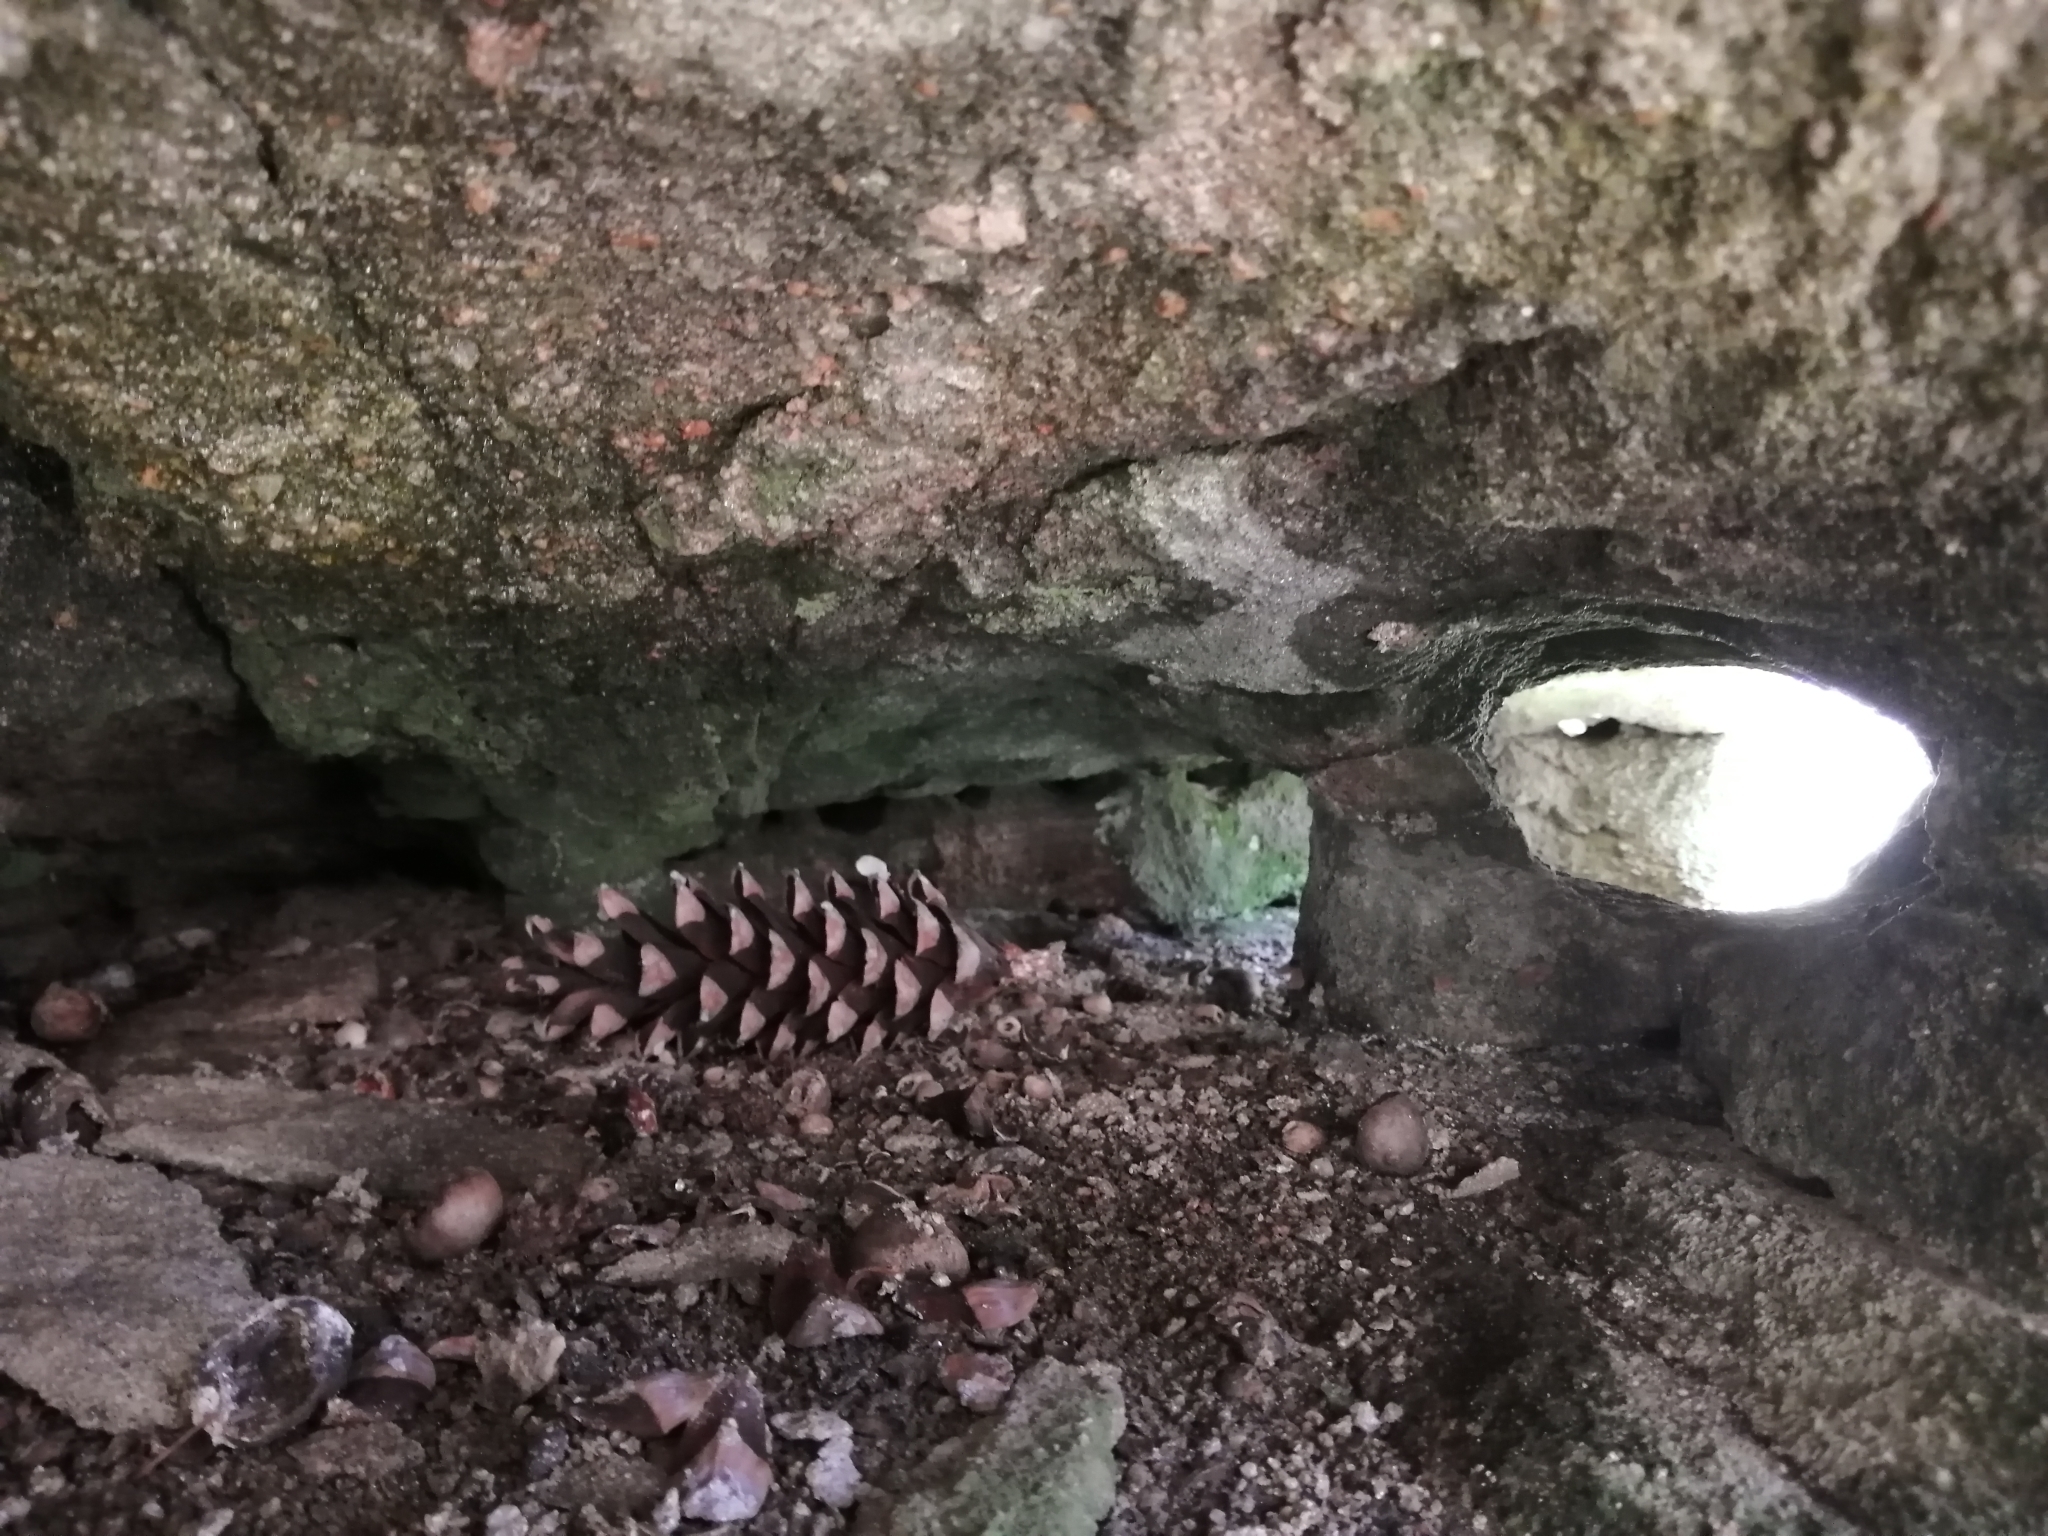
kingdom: Plantae
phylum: Tracheophyta
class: Pinopsida
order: Pinales
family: Pinaceae
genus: Pinus
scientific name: Pinus strobus
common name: Weymouth pine
